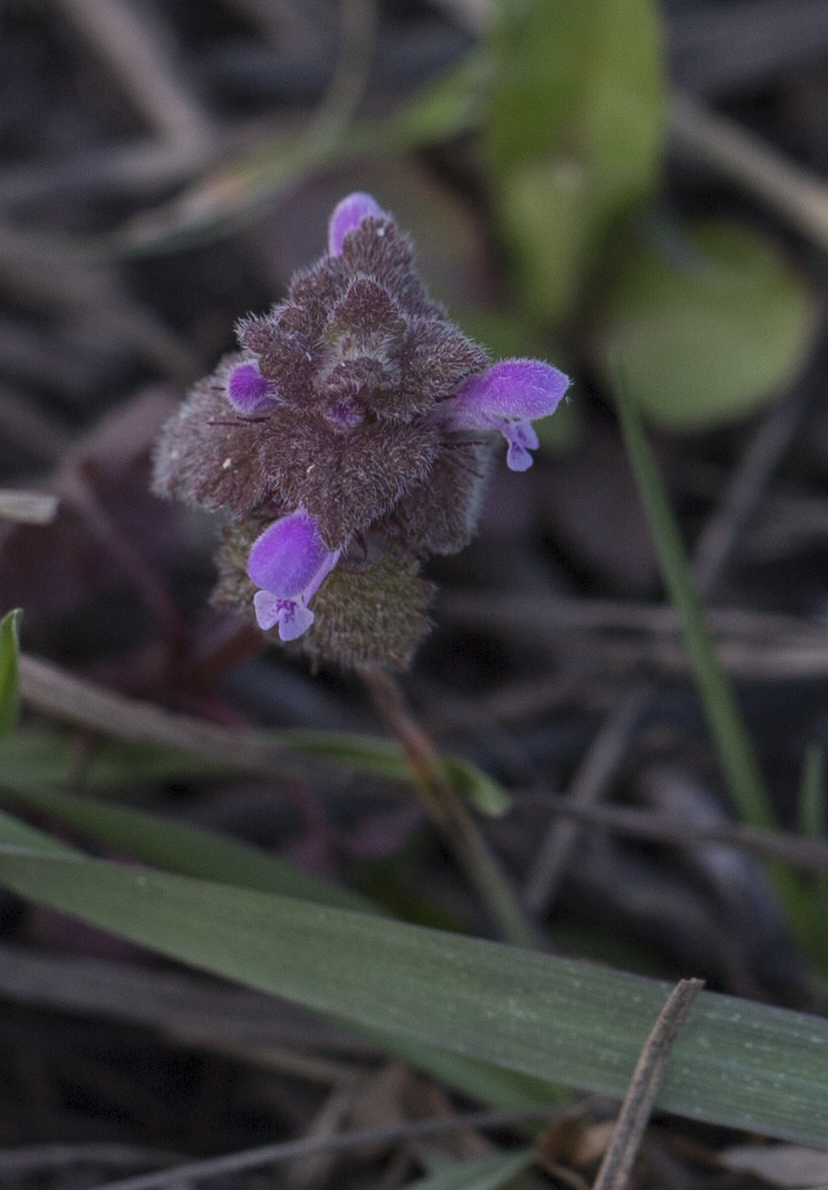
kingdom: Plantae
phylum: Tracheophyta
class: Magnoliopsida
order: Lamiales
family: Lamiaceae
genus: Lamium
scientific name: Lamium purpureum
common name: Red dead-nettle
